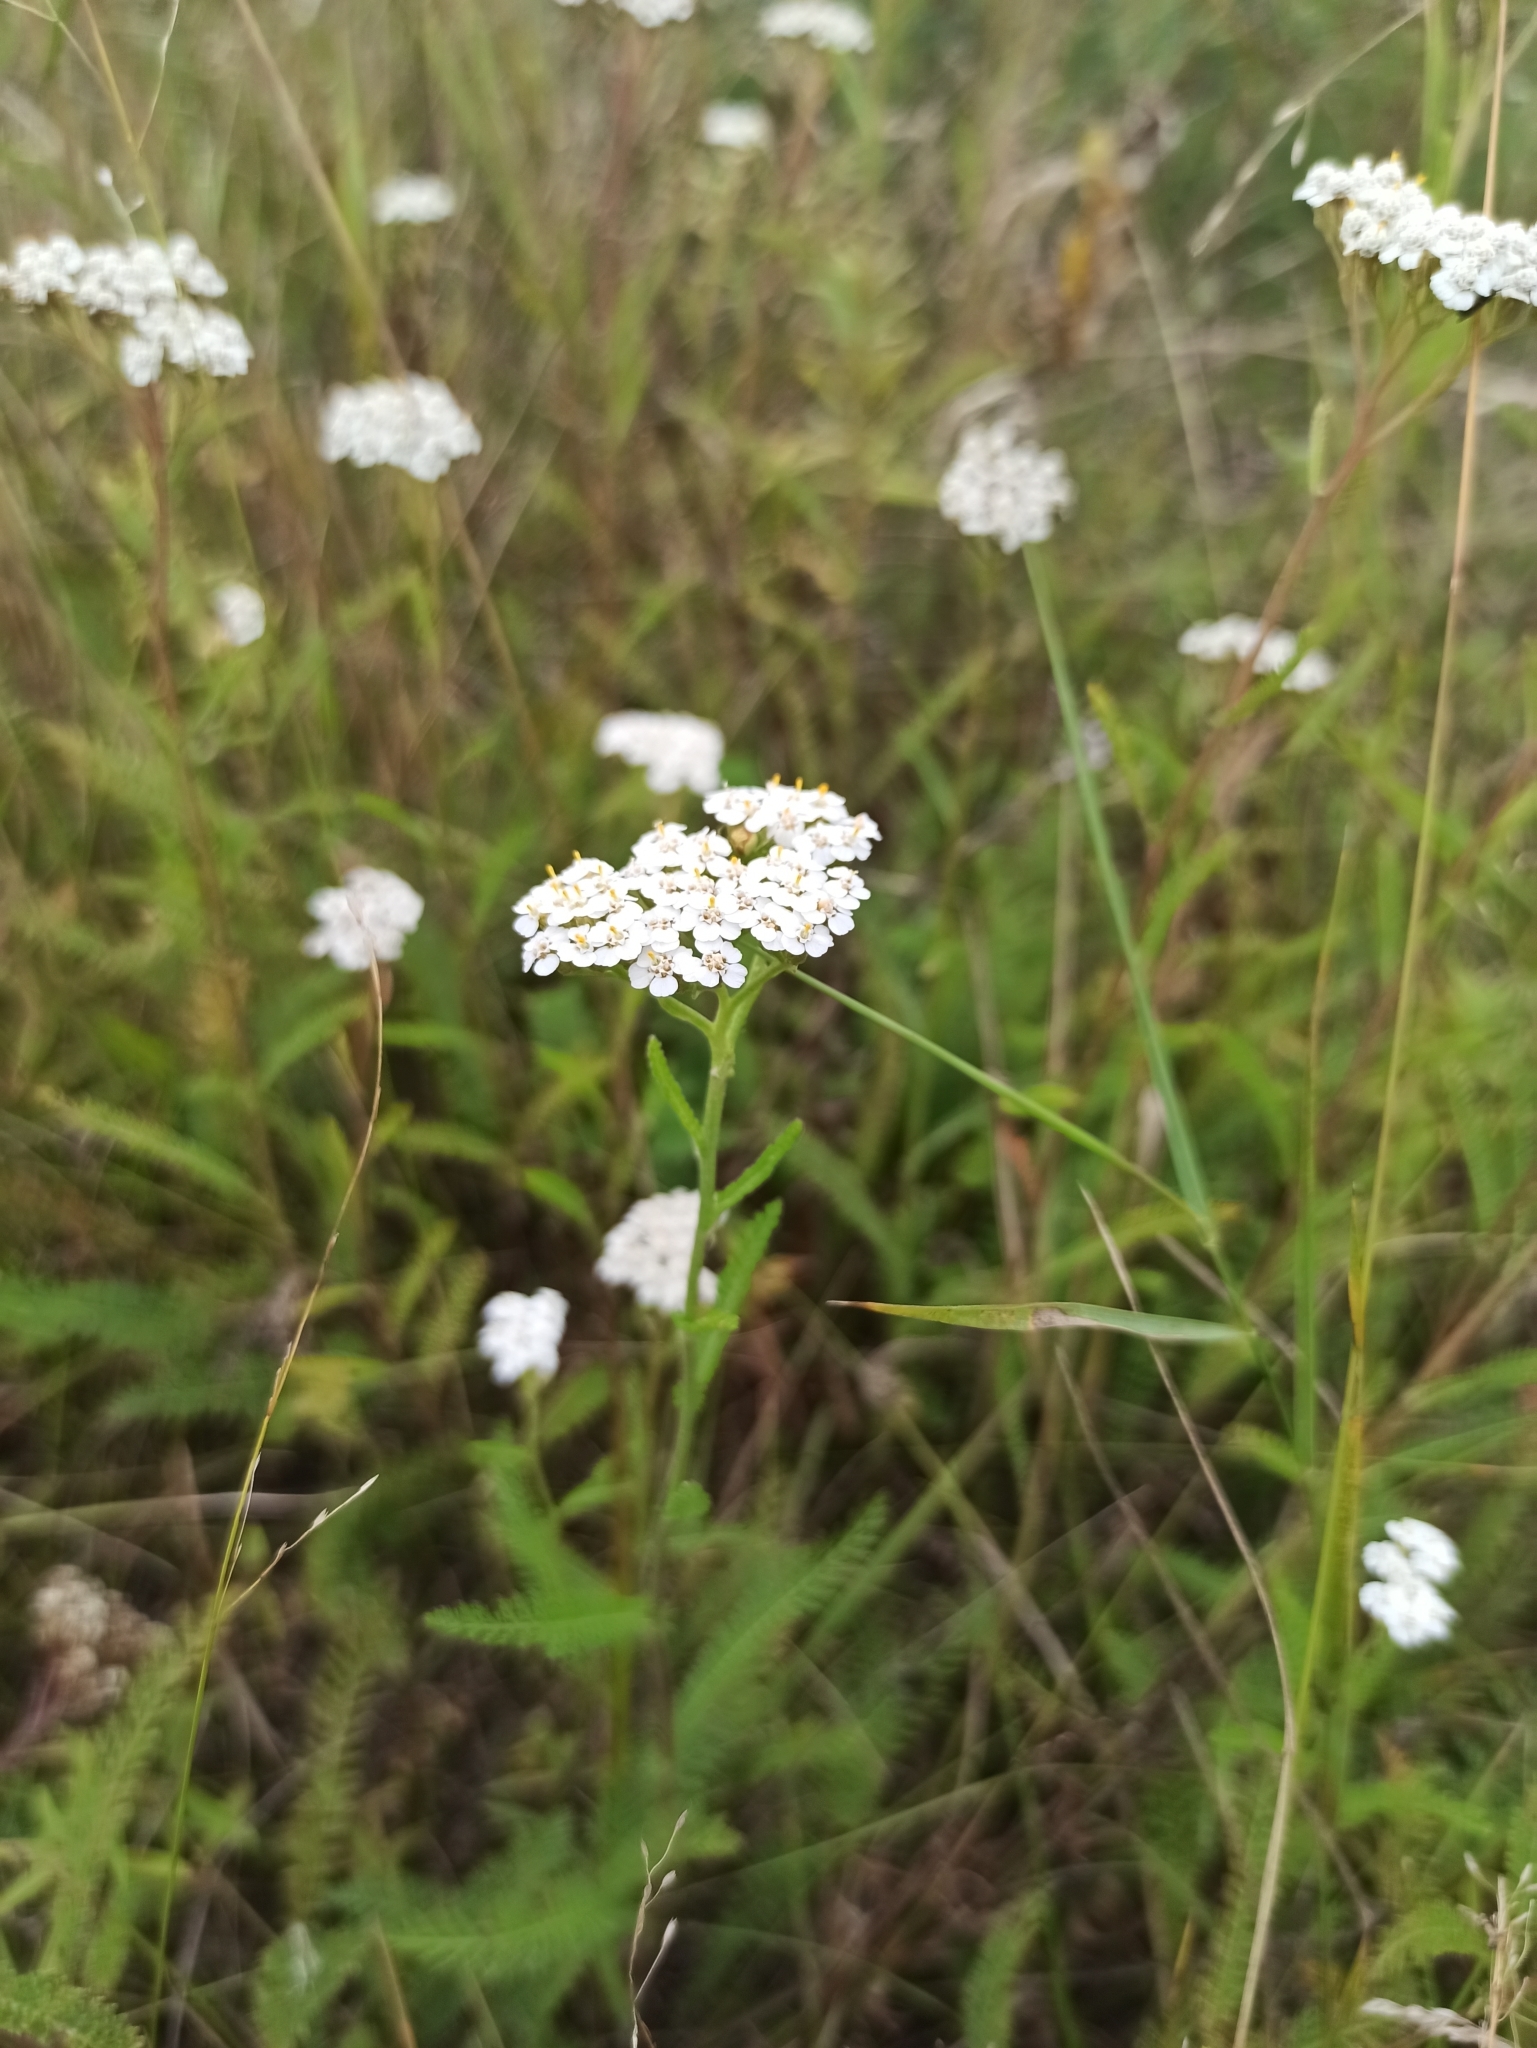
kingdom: Plantae
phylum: Tracheophyta
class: Magnoliopsida
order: Asterales
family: Asteraceae
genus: Achillea
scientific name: Achillea millefolium
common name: Yarrow
